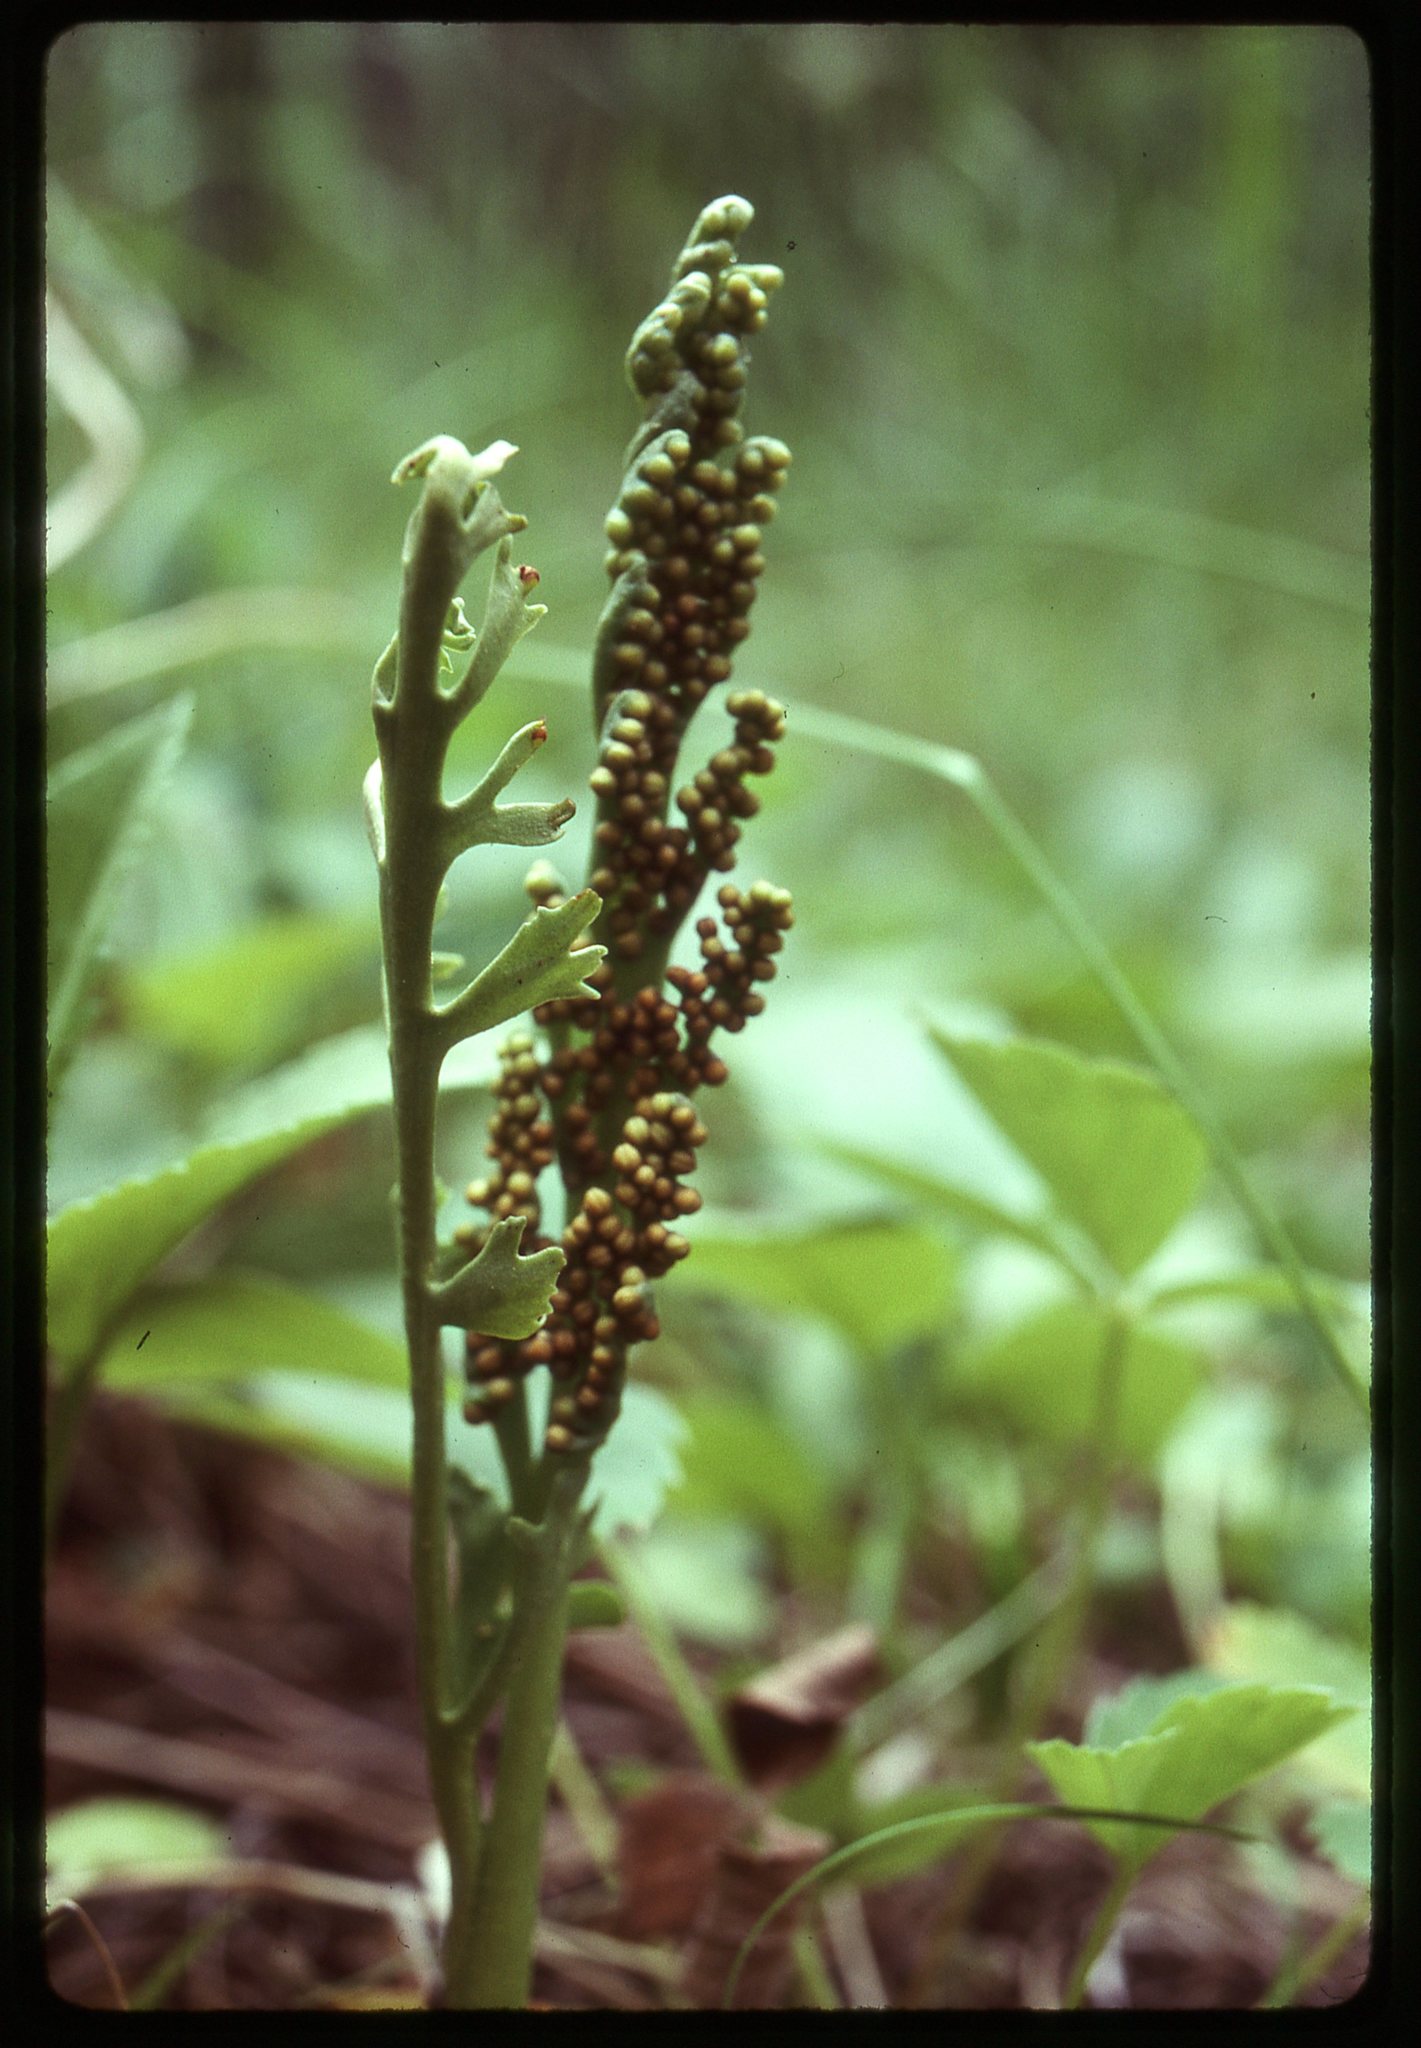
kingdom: Plantae
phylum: Tracheophyta
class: Polypodiopsida
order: Ophioglossales
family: Ophioglossaceae
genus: Botrychium
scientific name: Botrychium lineare
